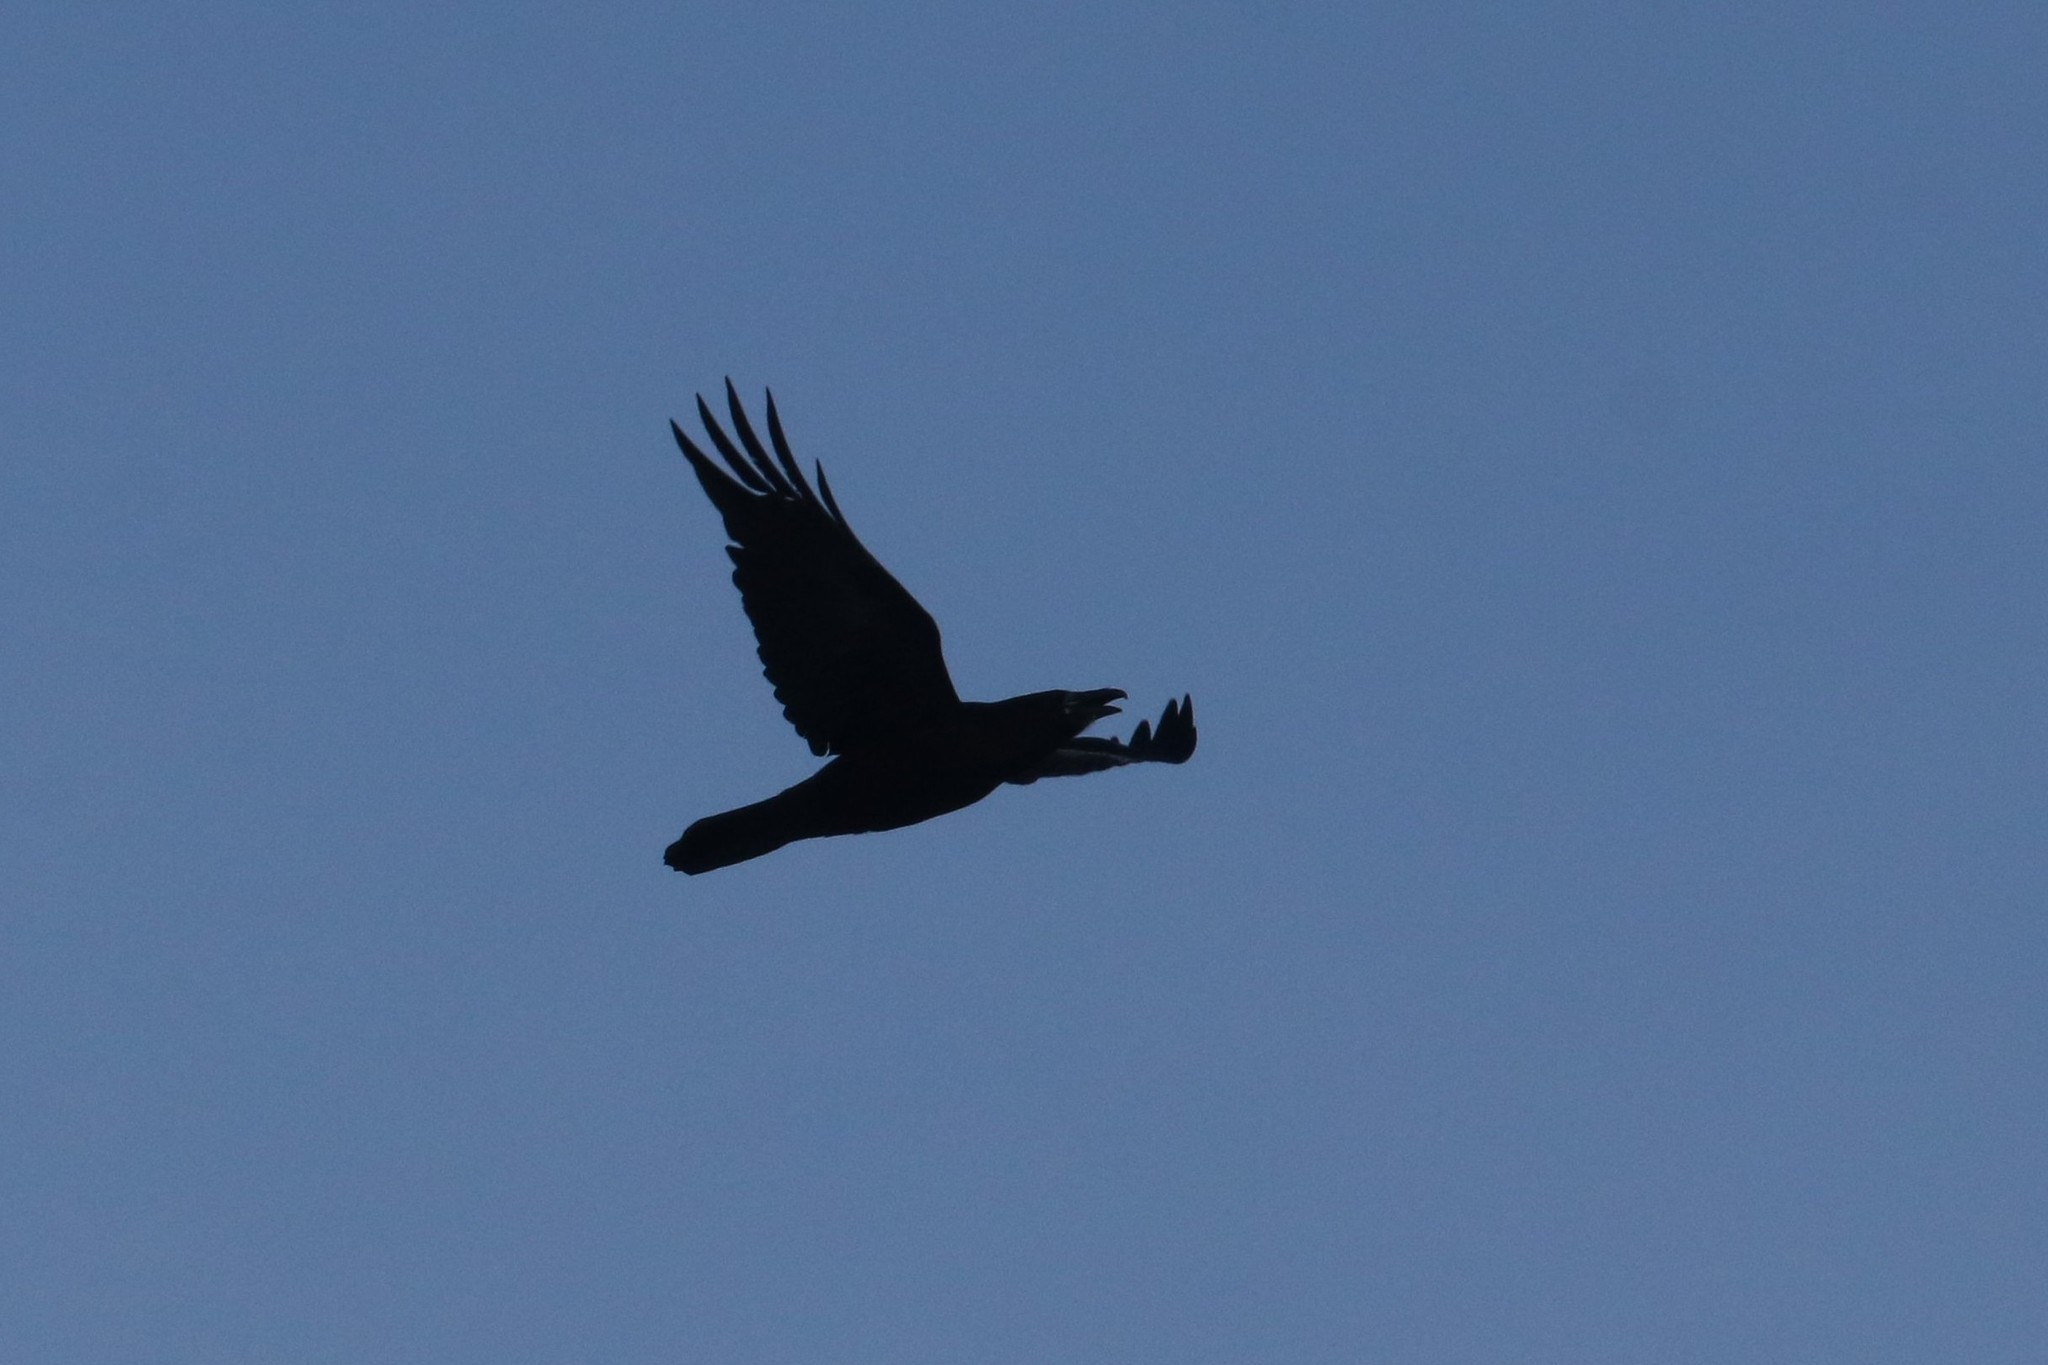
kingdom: Animalia
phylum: Chordata
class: Aves
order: Passeriformes
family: Corvidae
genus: Corvus
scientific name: Corvus corax
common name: Common raven
